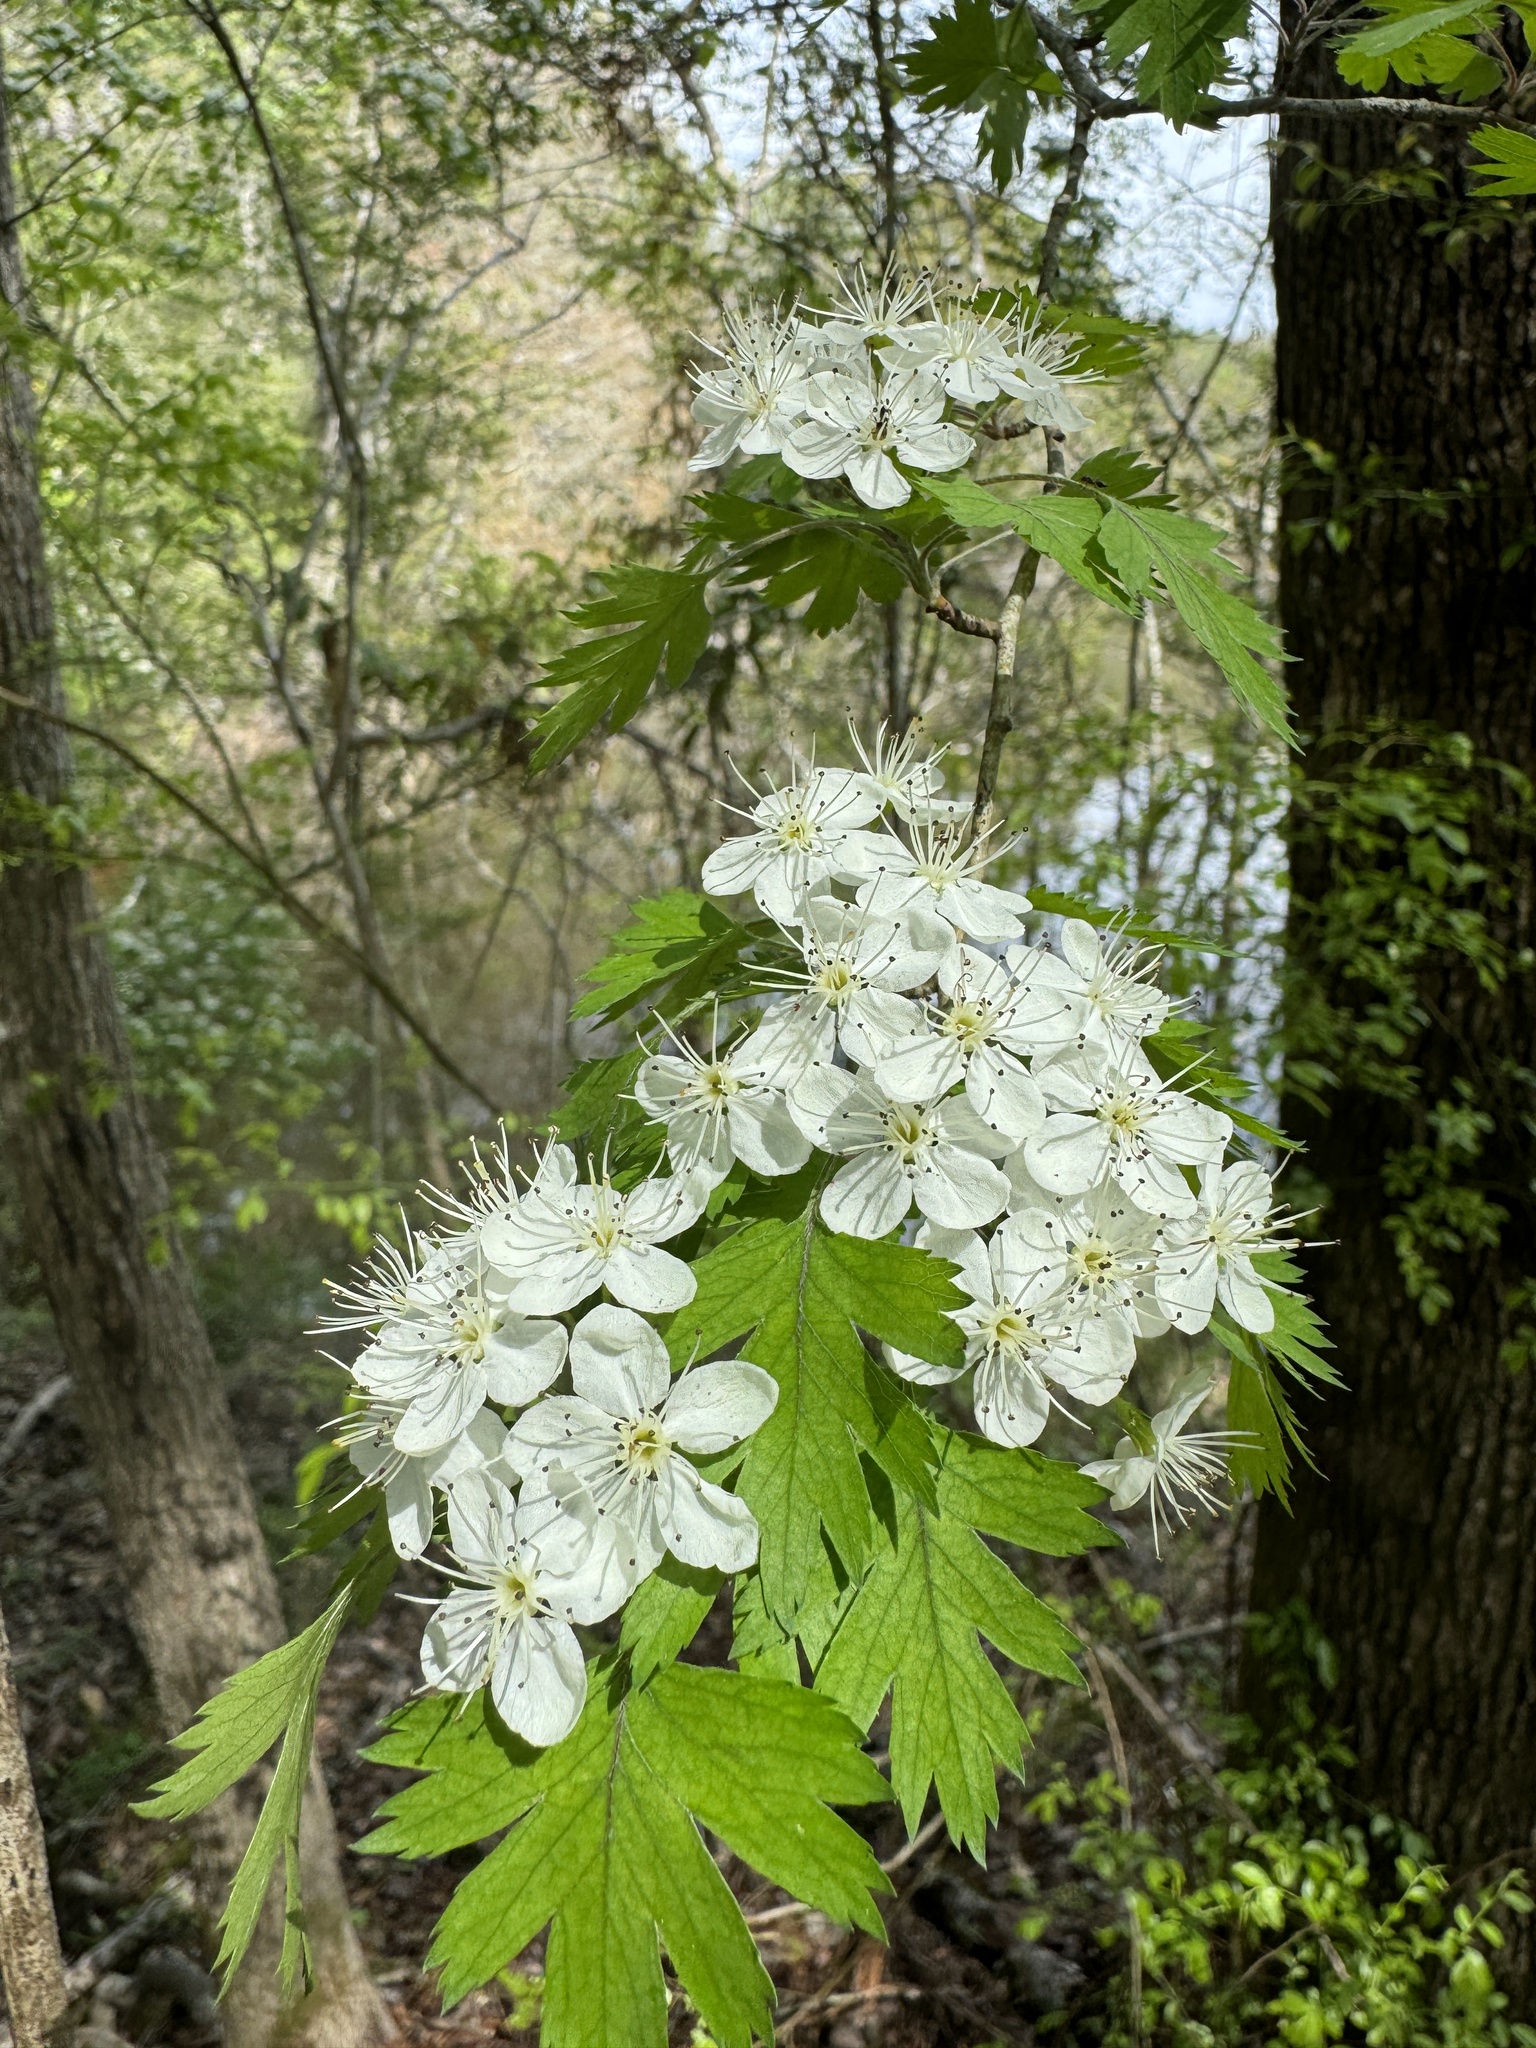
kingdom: Plantae
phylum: Tracheophyta
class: Magnoliopsida
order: Rosales
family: Rosaceae
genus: Crataegus
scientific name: Crataegus marshallii
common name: Parsley-hawthorn
